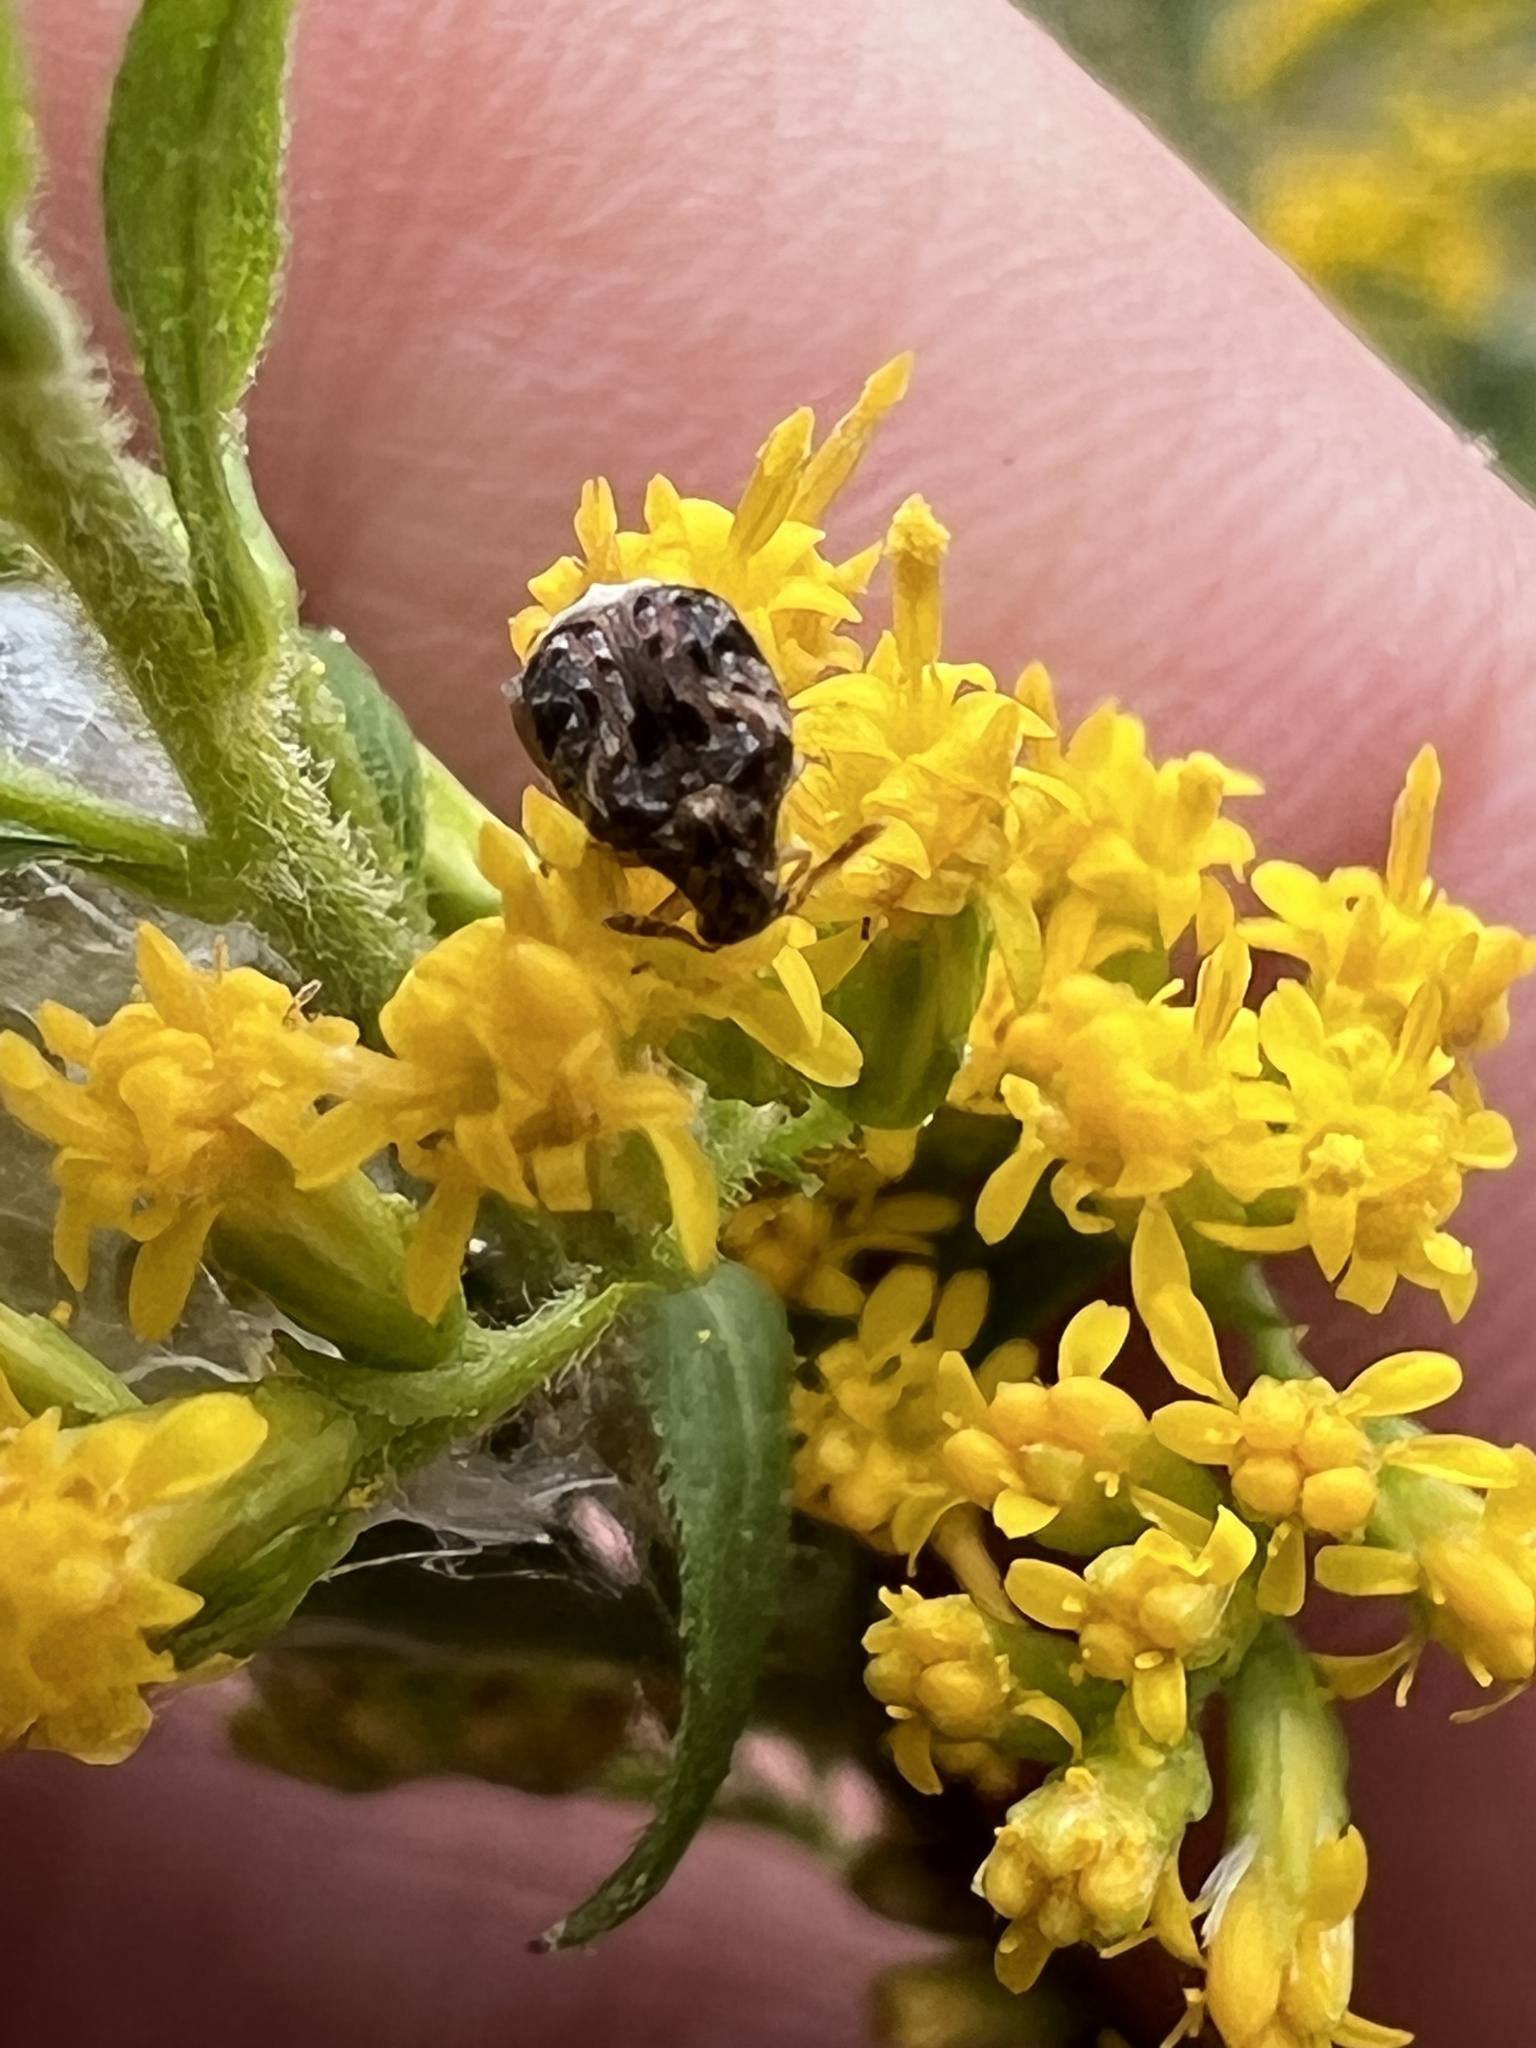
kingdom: Animalia
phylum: Arthropoda
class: Insecta
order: Coleoptera
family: Chrysomelidae
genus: Gibbobruchus
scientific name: Gibbobruchus mimus
